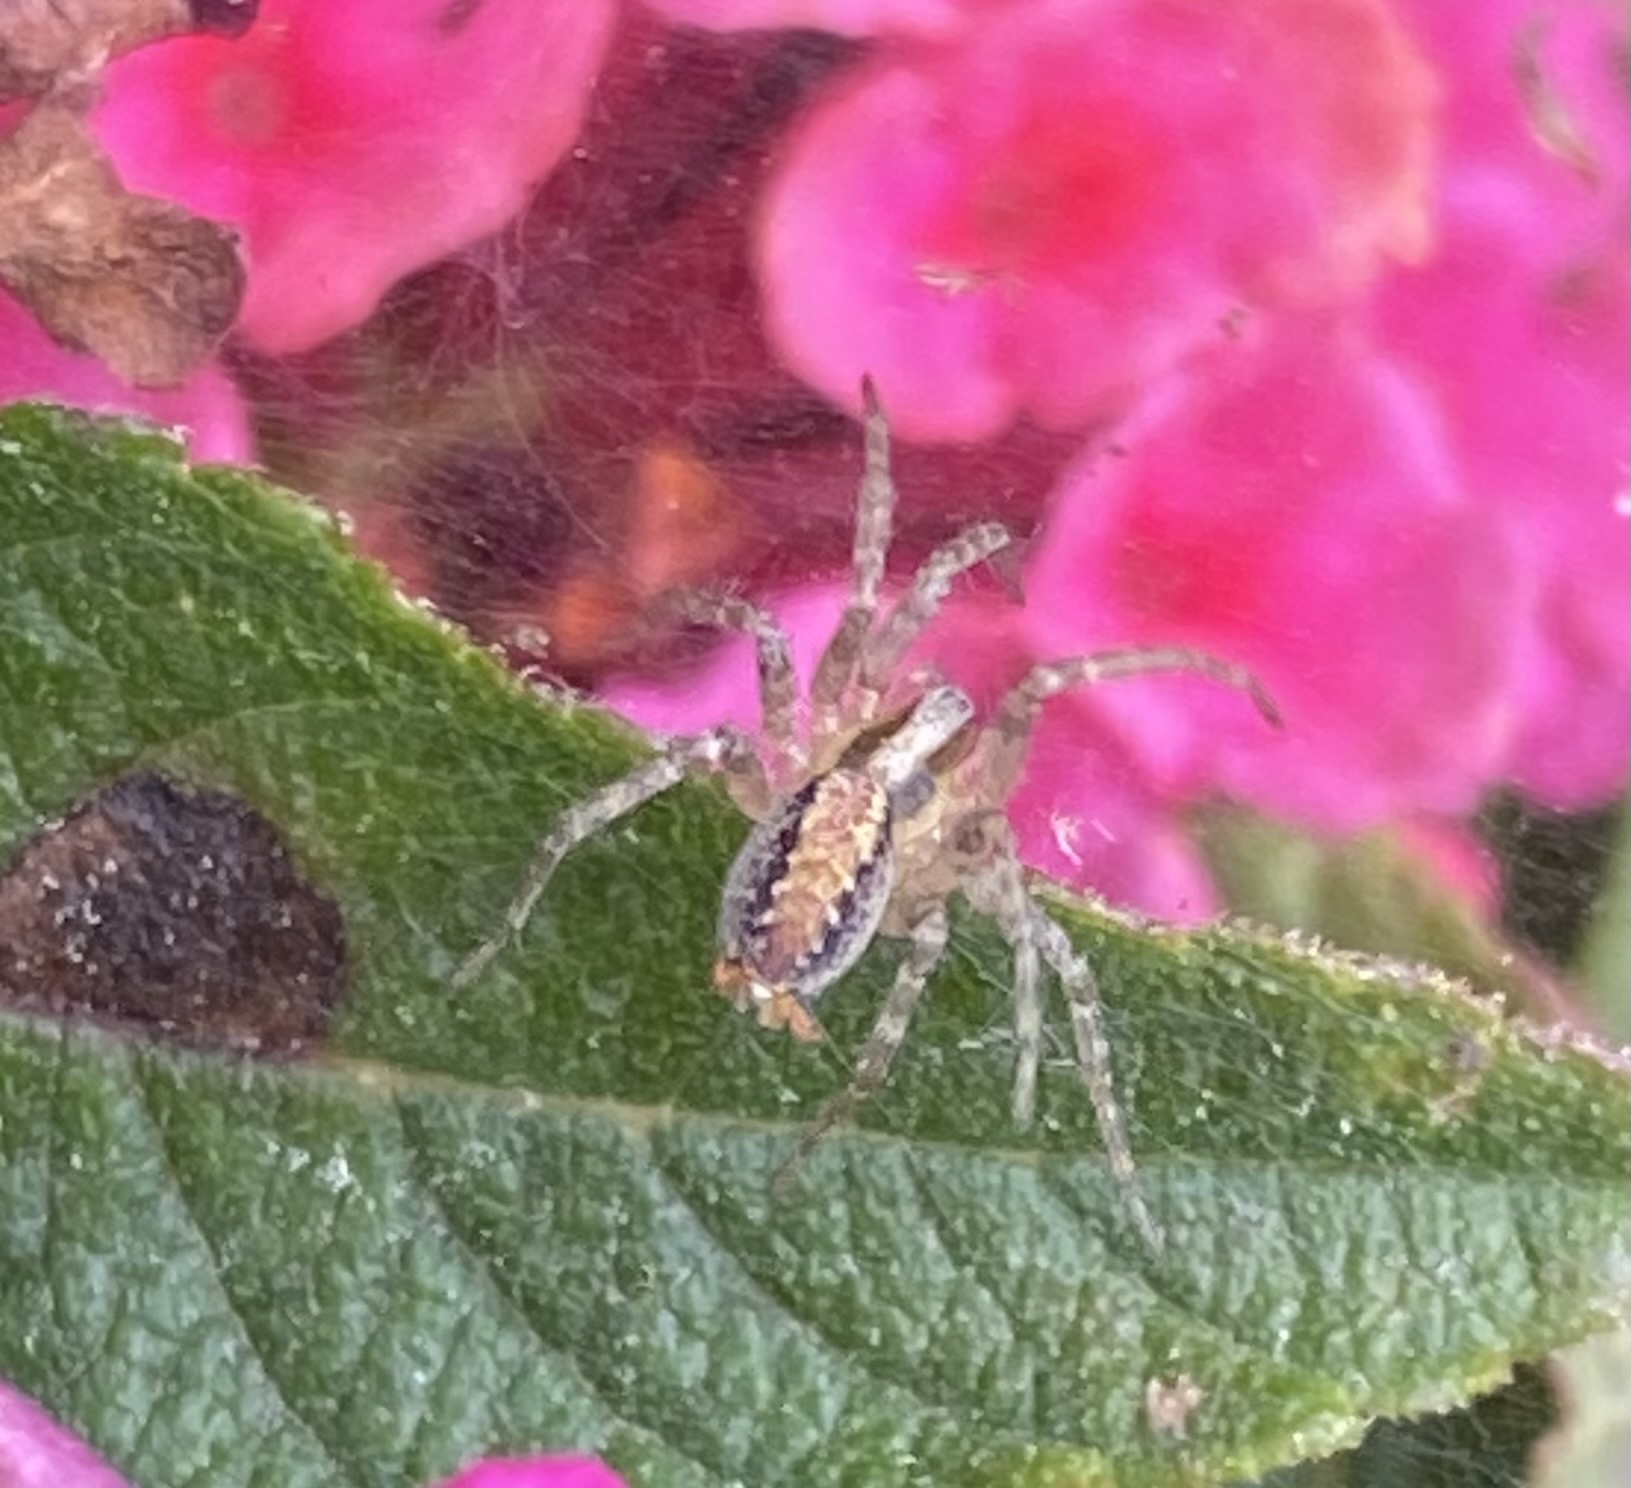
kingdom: Animalia
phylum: Arthropoda
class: Arachnida
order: Araneae
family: Agelenidae
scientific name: Agelenidae
